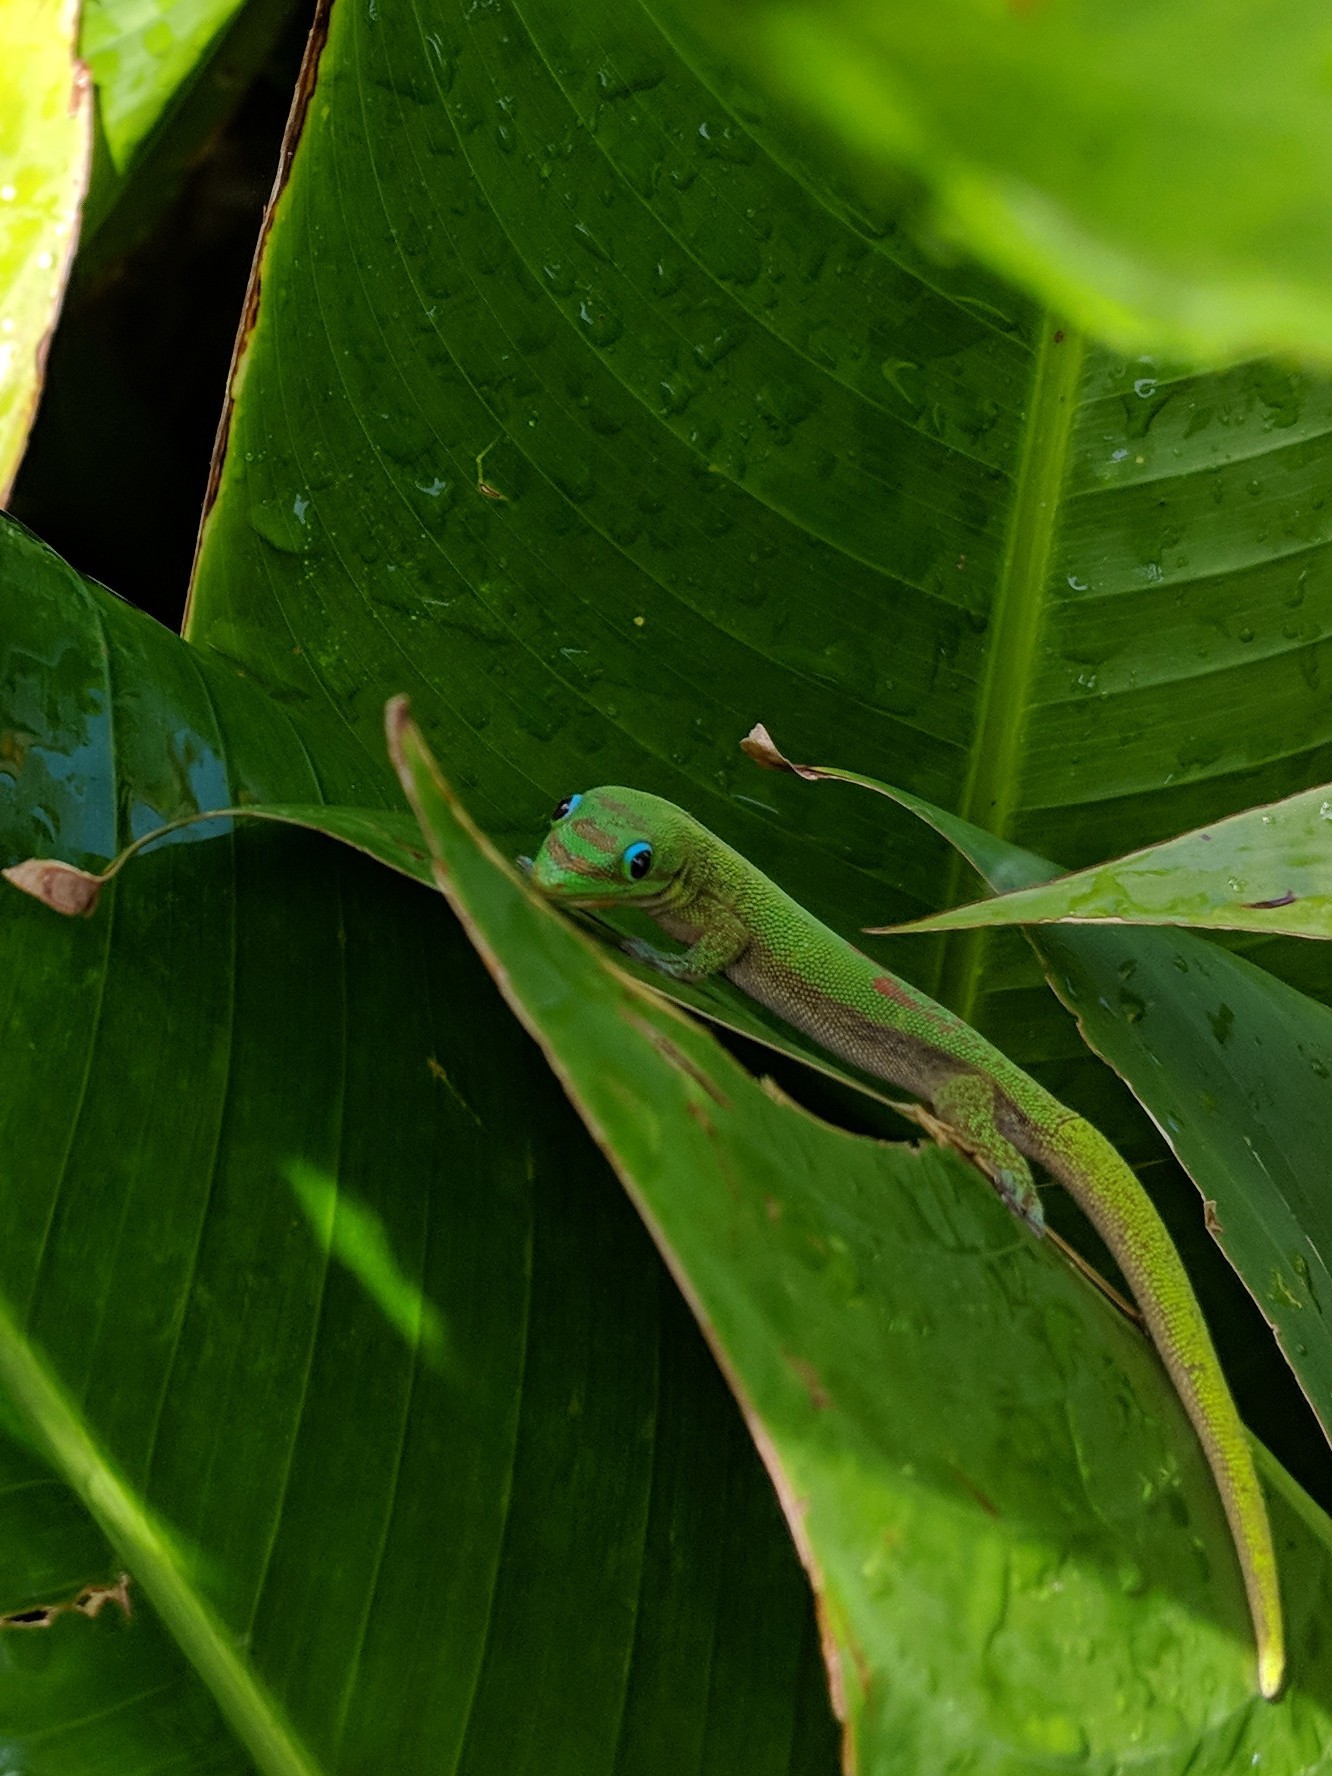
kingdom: Animalia
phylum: Chordata
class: Squamata
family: Gekkonidae
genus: Phelsuma
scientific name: Phelsuma laticauda
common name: Gold dust day gecko
